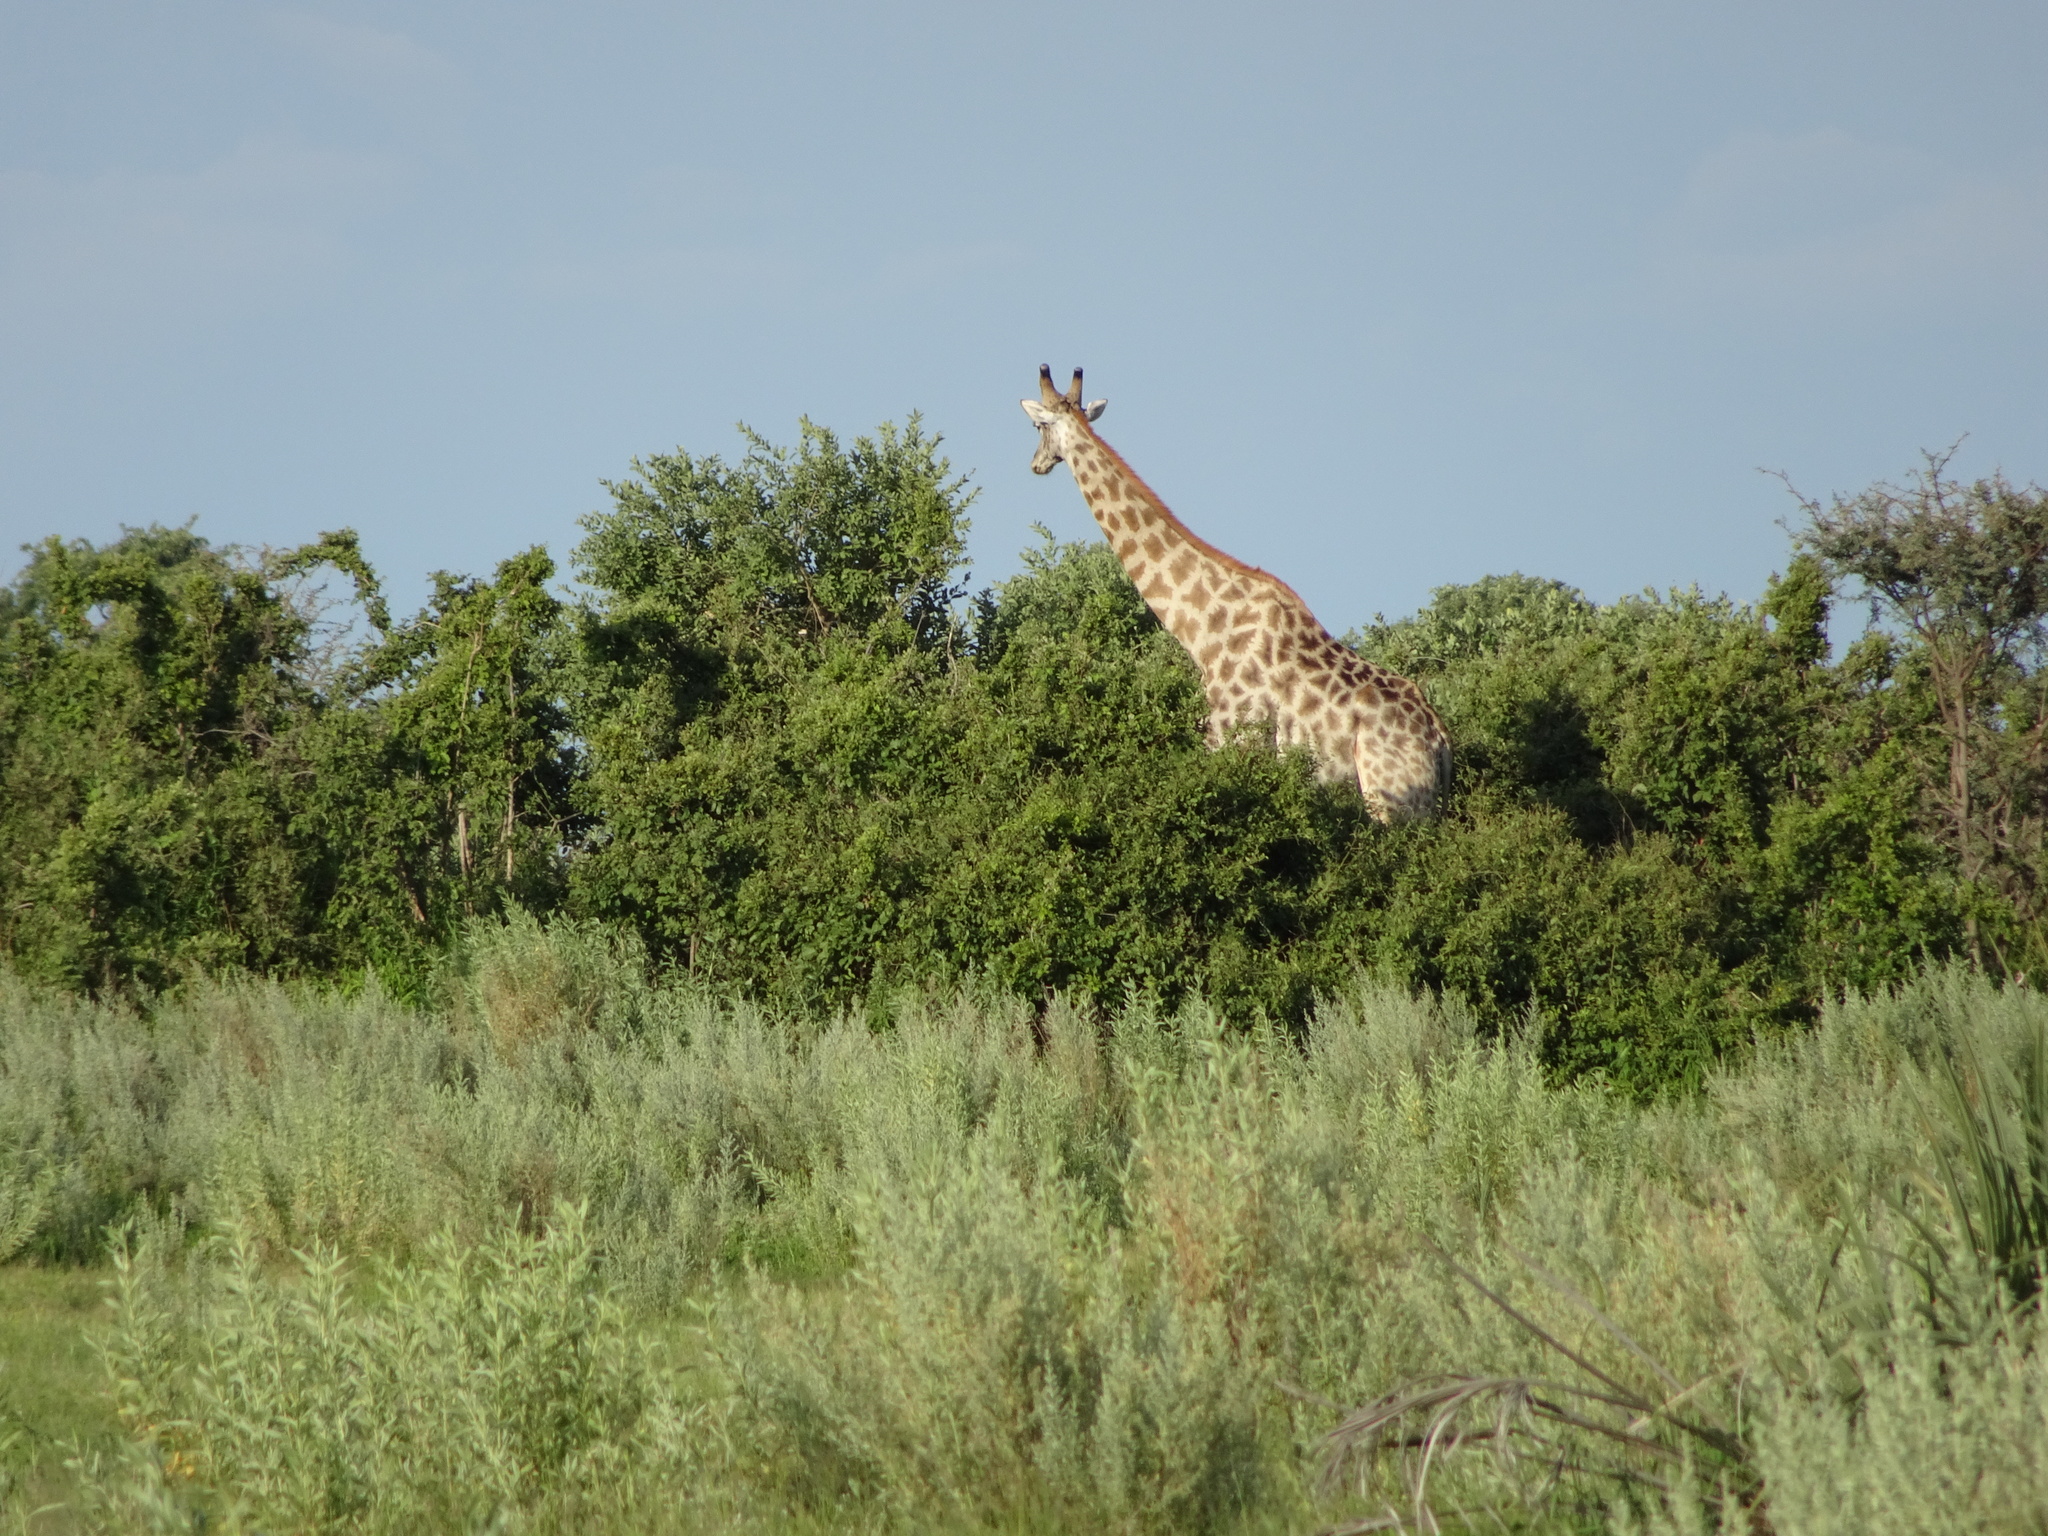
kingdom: Animalia
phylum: Chordata
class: Mammalia
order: Artiodactyla
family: Giraffidae
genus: Giraffa
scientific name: Giraffa giraffa
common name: Southern giraffe
